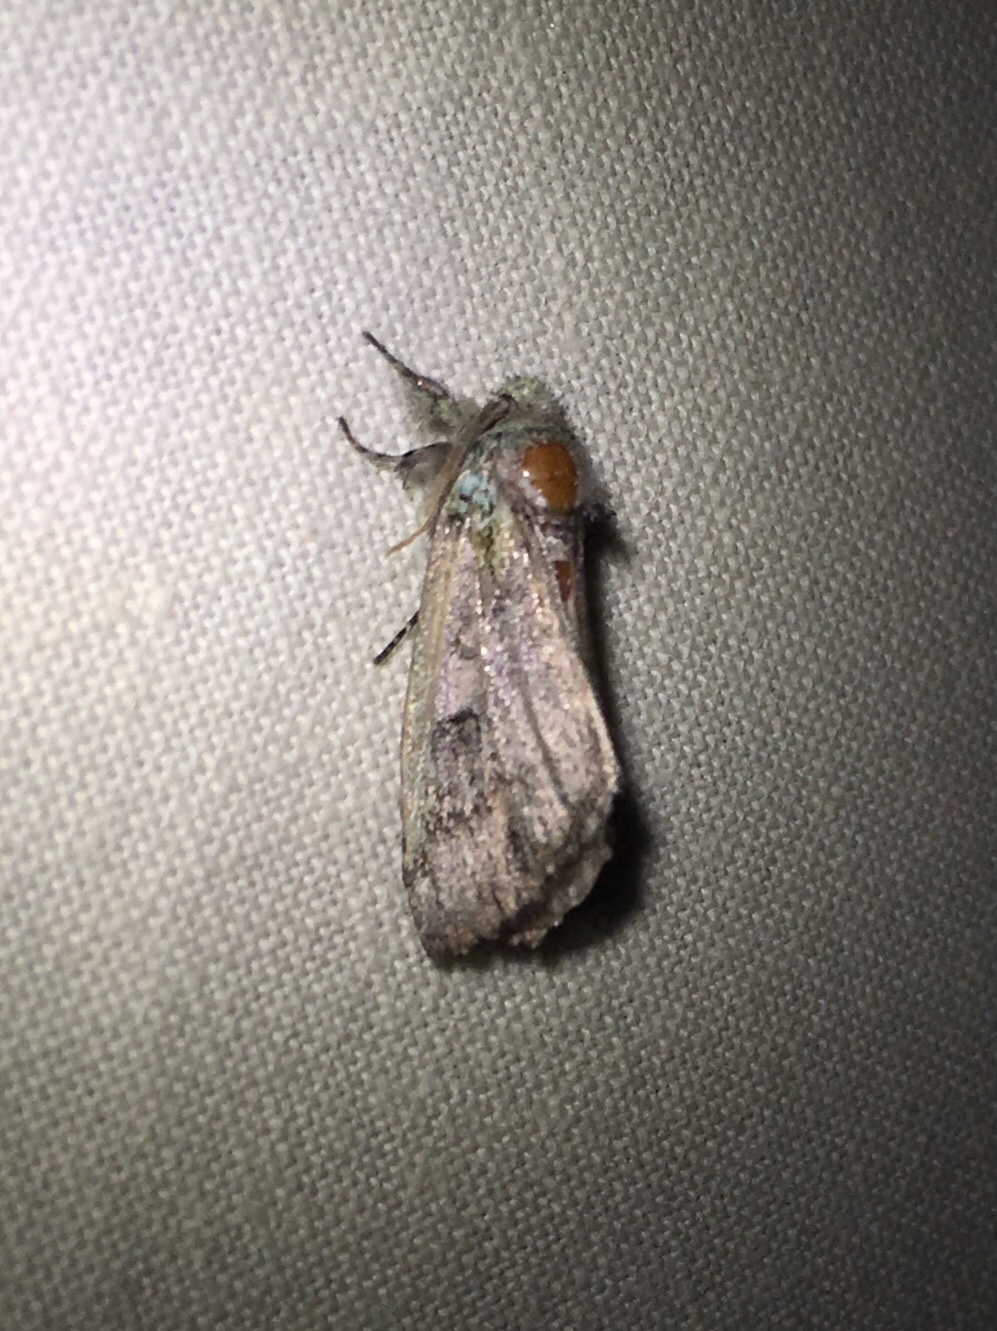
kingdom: Animalia
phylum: Arthropoda
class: Insecta
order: Lepidoptera
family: Notodontidae
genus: Schizura
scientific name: Schizura
